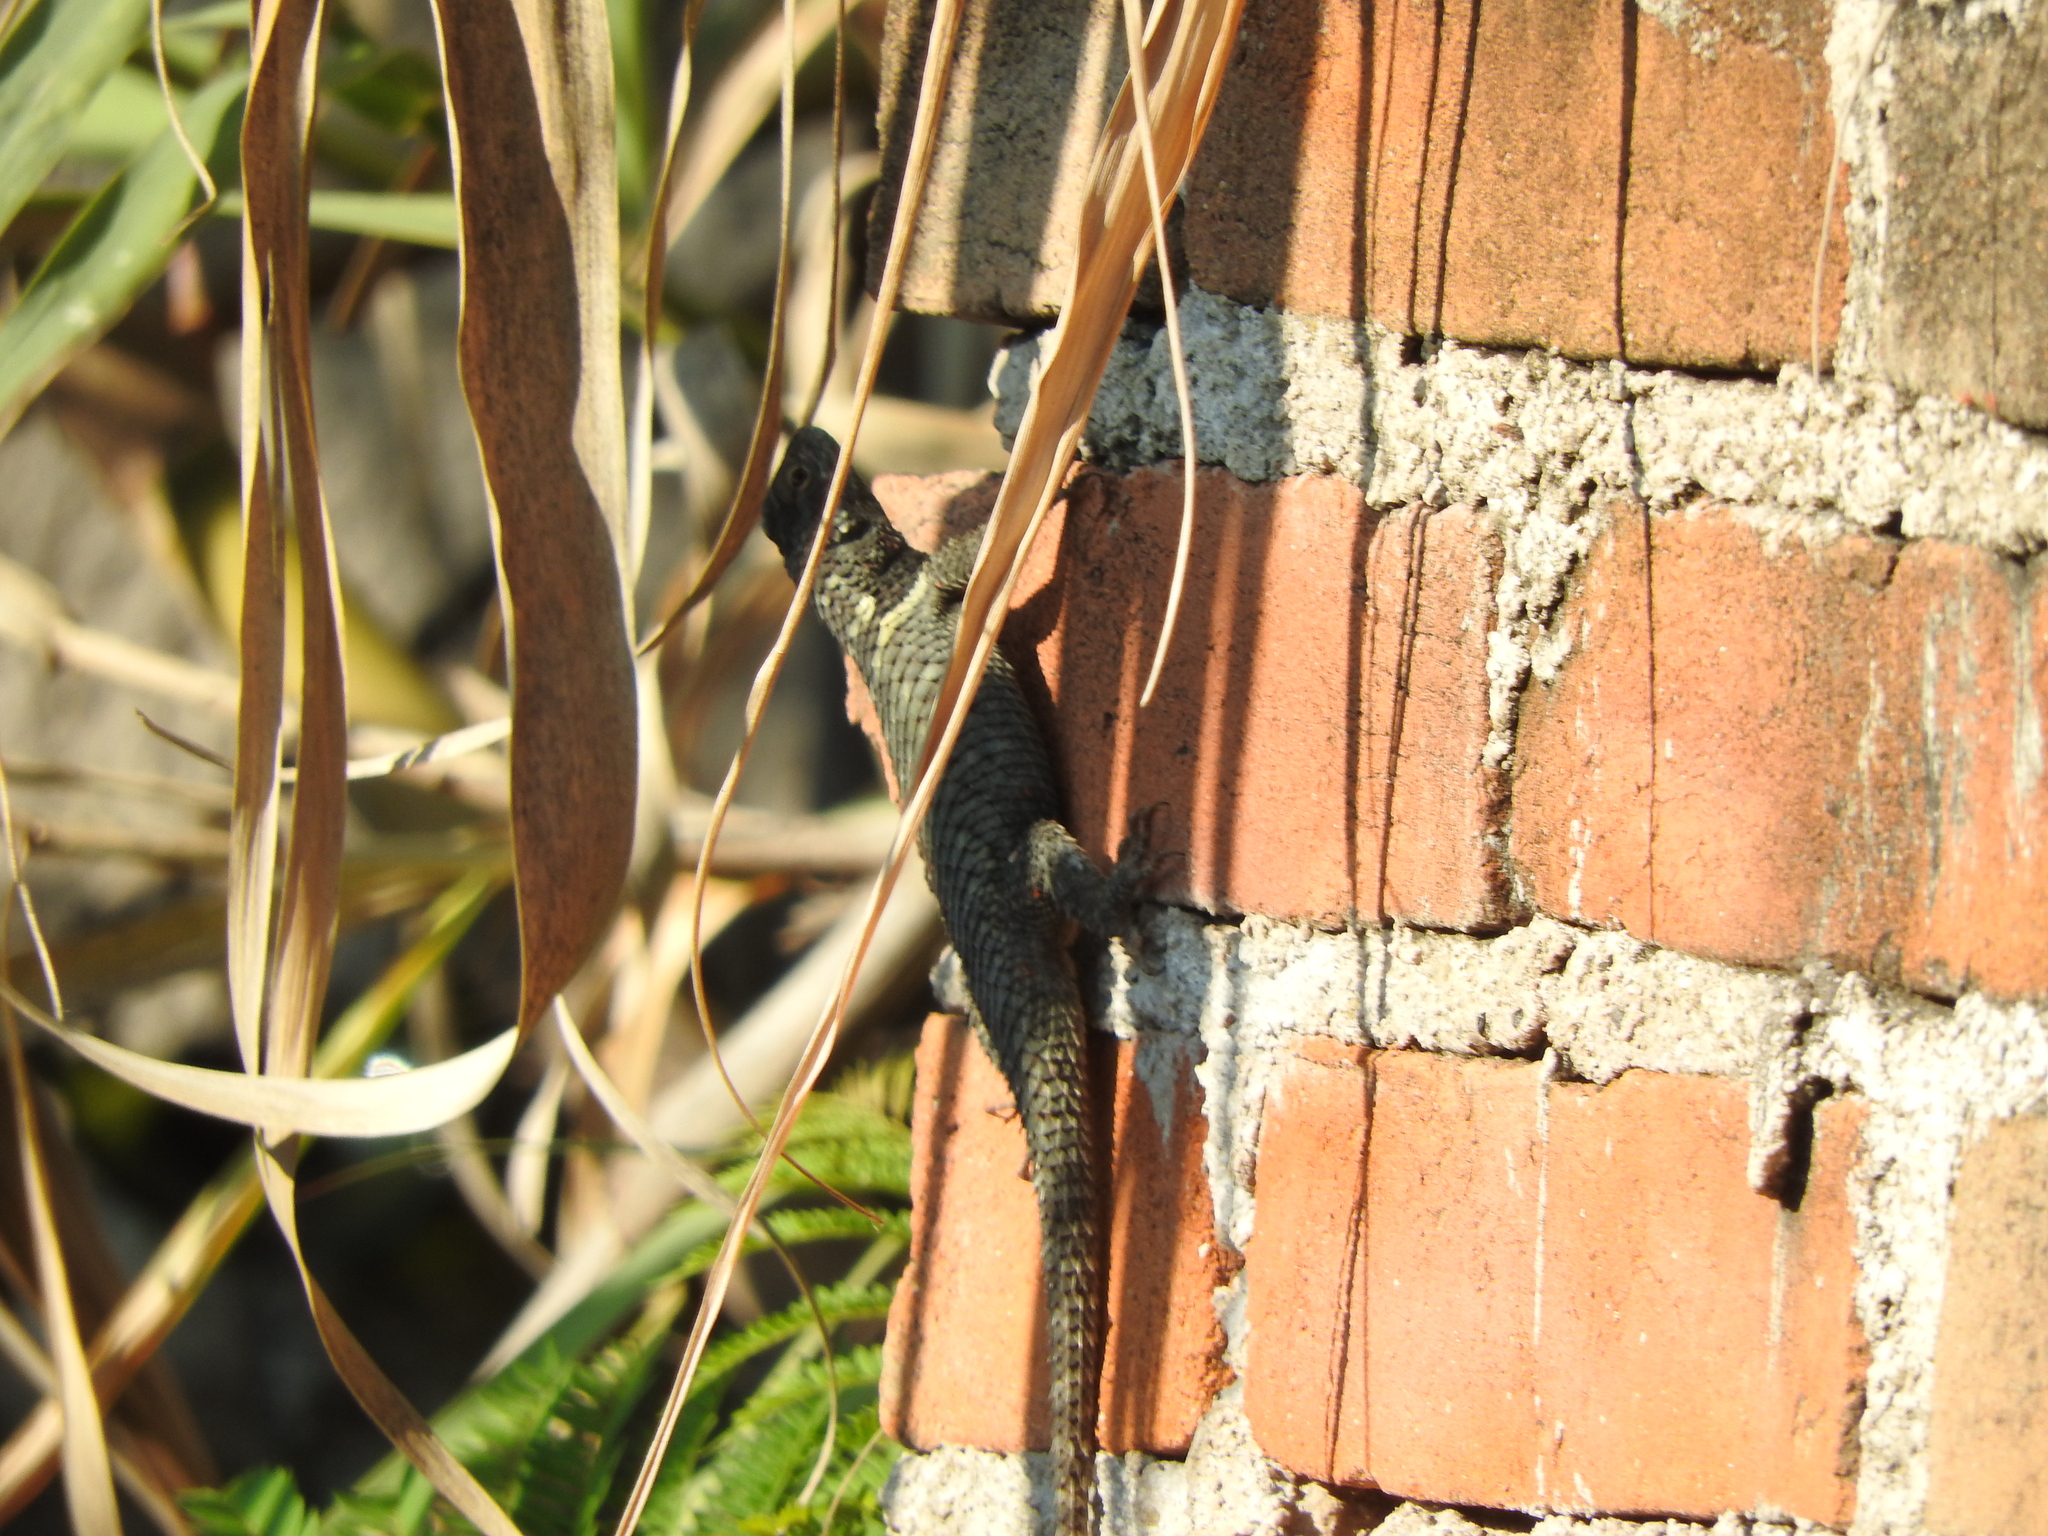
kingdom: Animalia
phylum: Chordata
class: Squamata
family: Phrynosomatidae
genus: Sceloporus
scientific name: Sceloporus torquatus
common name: Central plateau torquate lizard [melanogaster]
